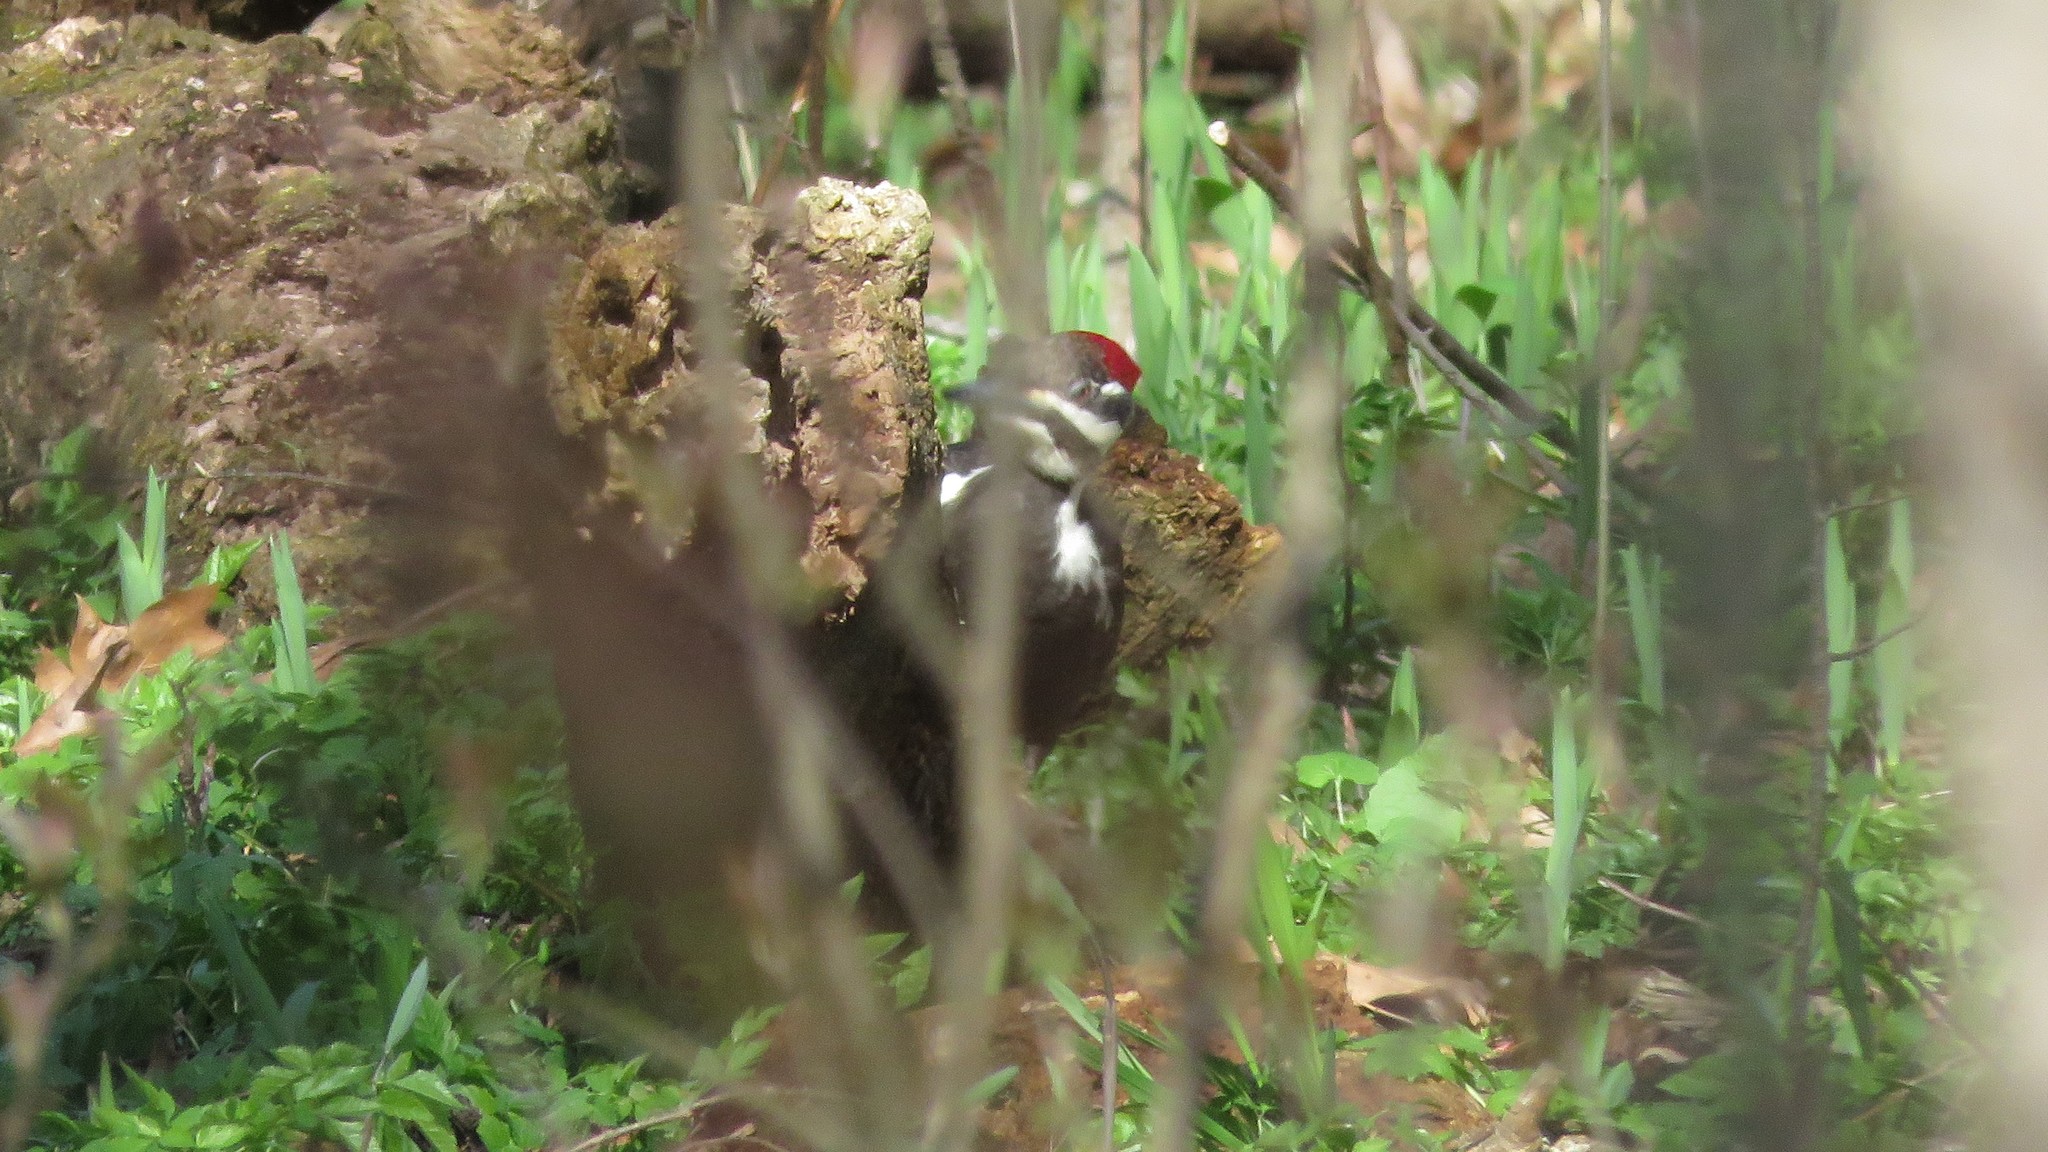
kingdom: Animalia
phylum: Chordata
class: Aves
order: Piciformes
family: Picidae
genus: Dryocopus
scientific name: Dryocopus pileatus
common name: Pileated woodpecker
